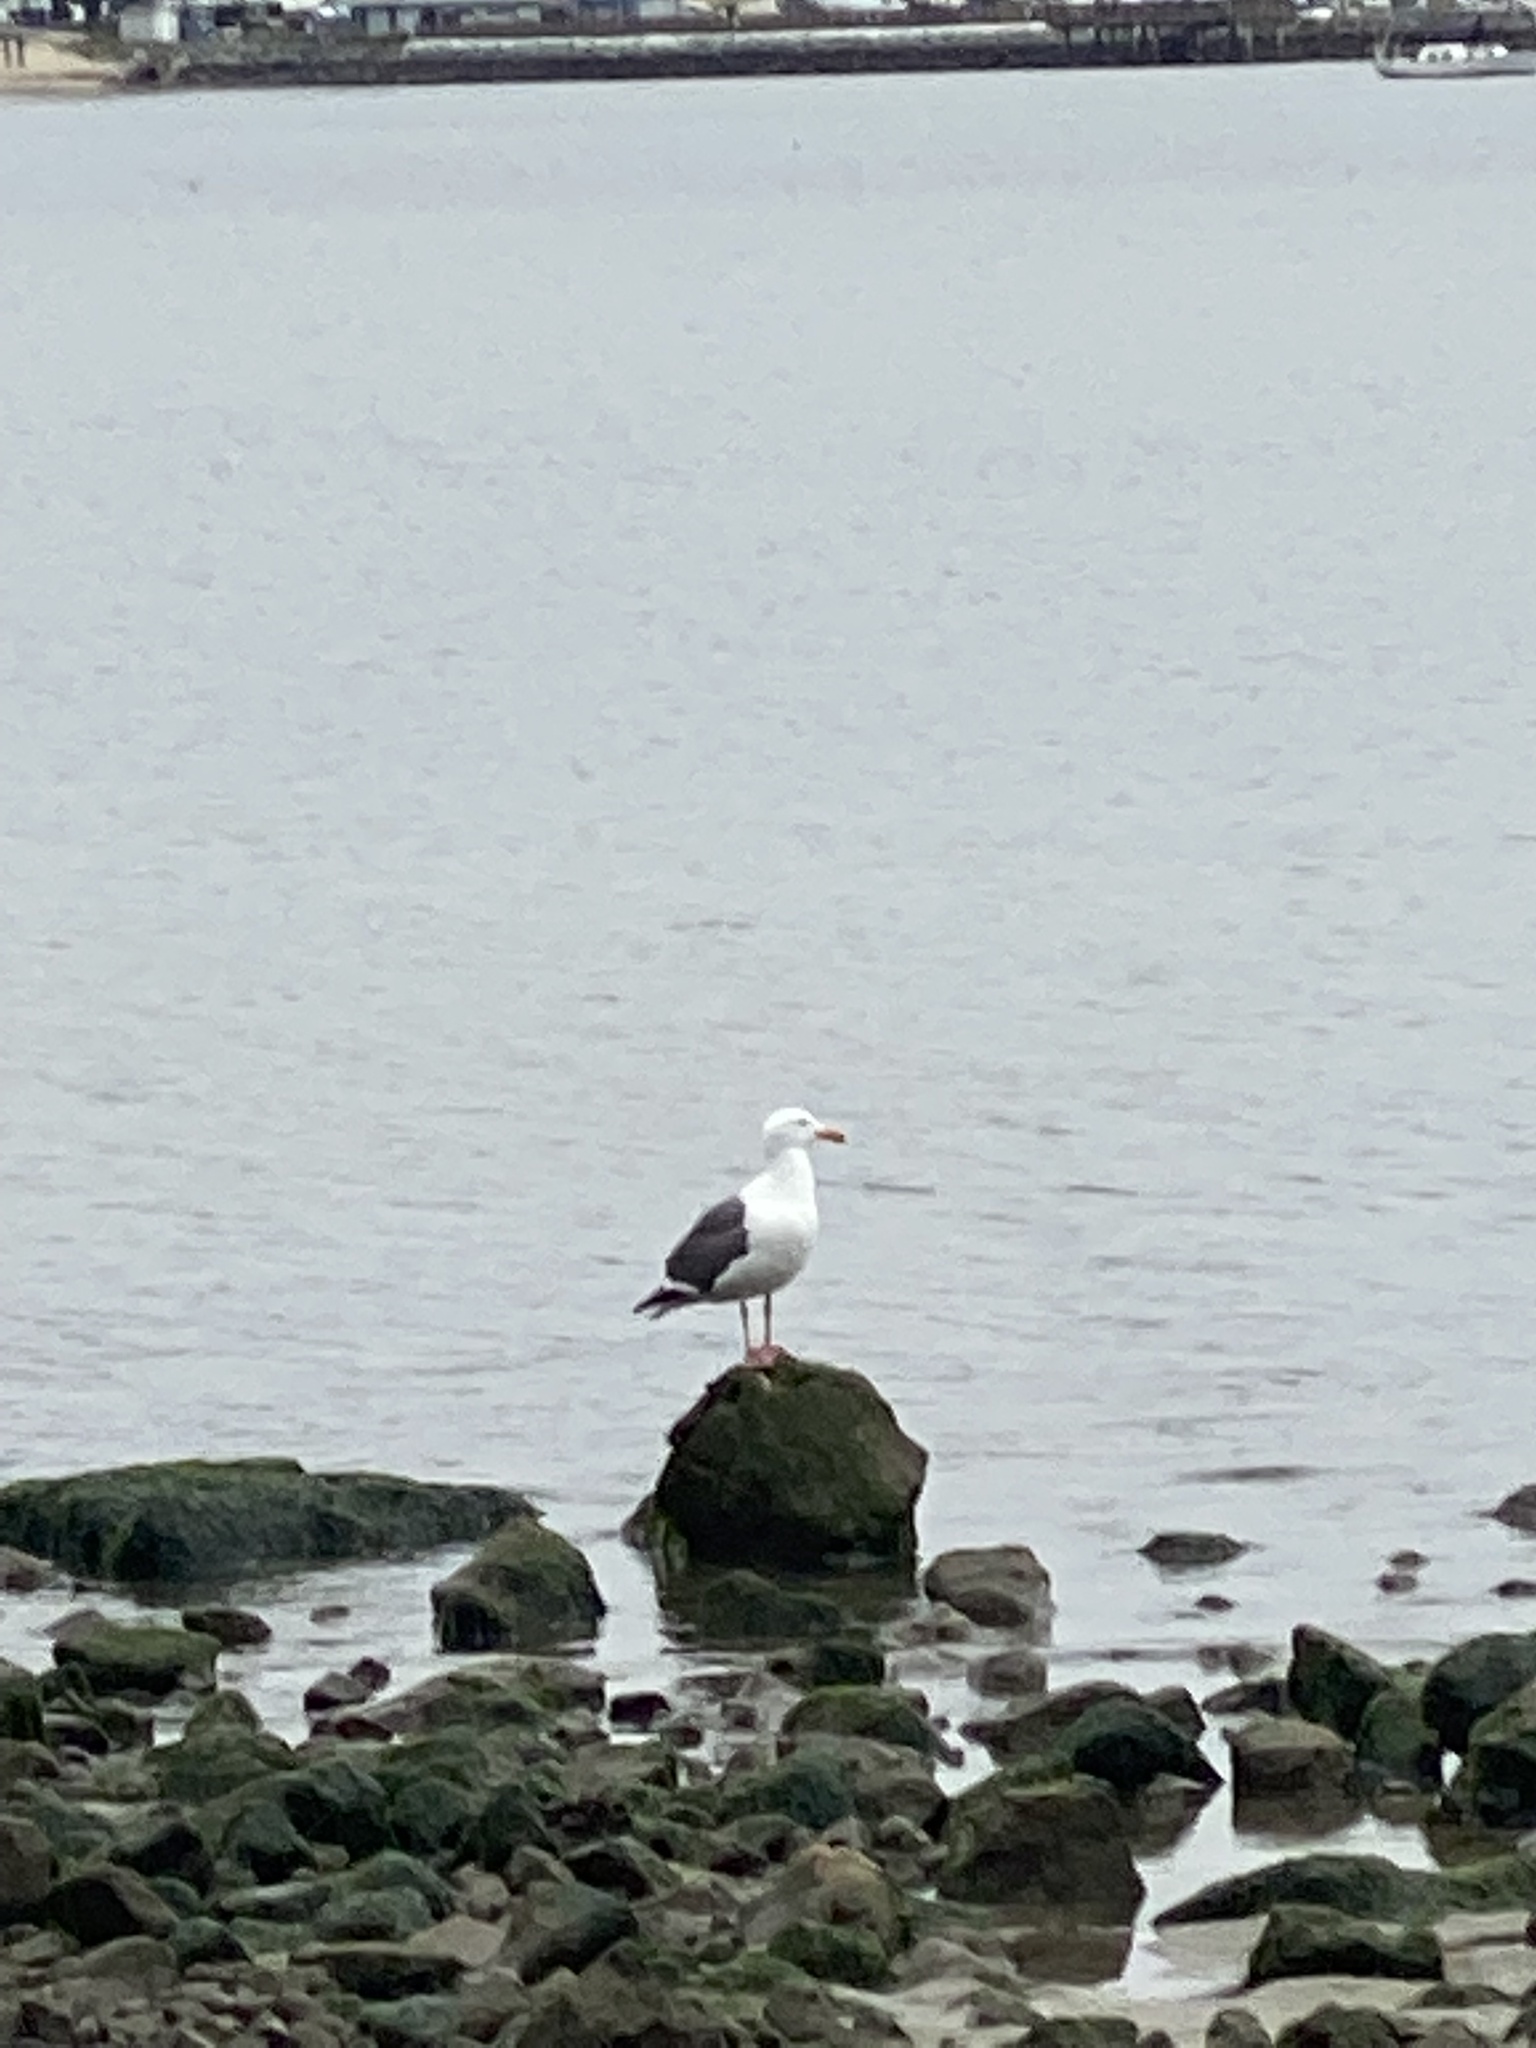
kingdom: Animalia
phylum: Chordata
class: Aves
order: Charadriiformes
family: Laridae
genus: Larus
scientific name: Larus occidentalis
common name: Western gull
